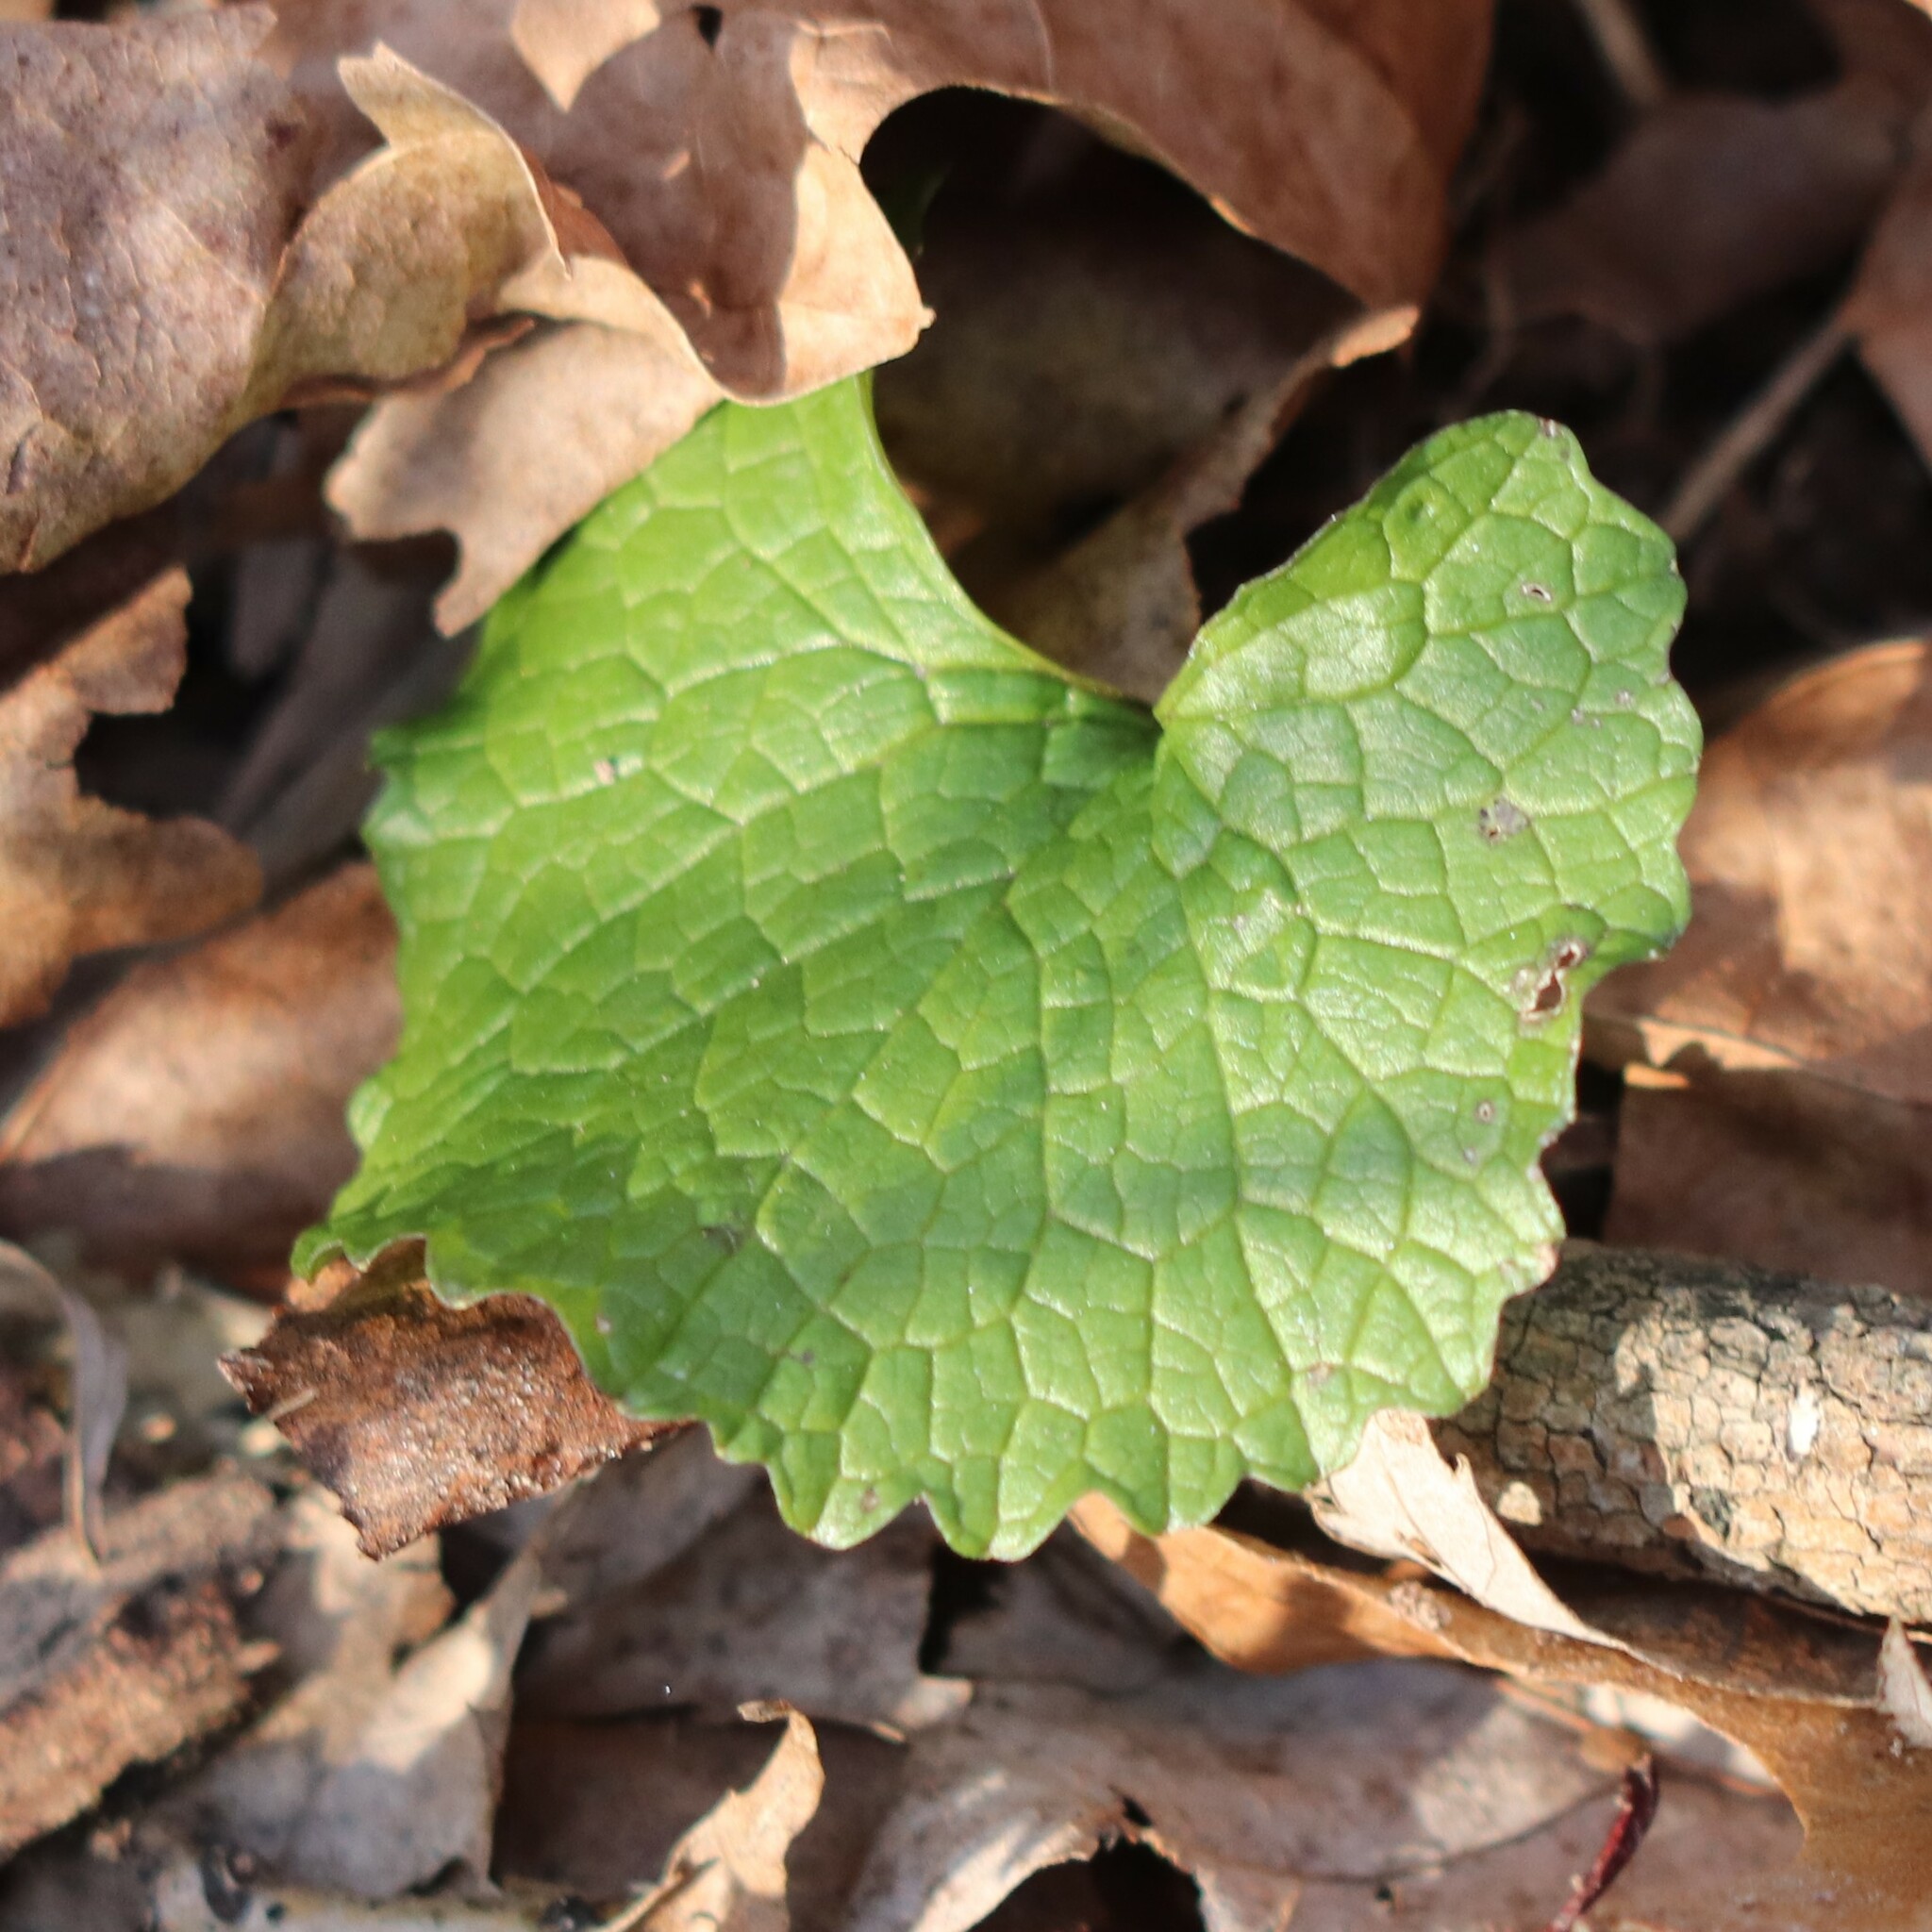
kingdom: Plantae
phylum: Tracheophyta
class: Magnoliopsida
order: Brassicales
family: Brassicaceae
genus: Alliaria
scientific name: Alliaria petiolata
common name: Garlic mustard
